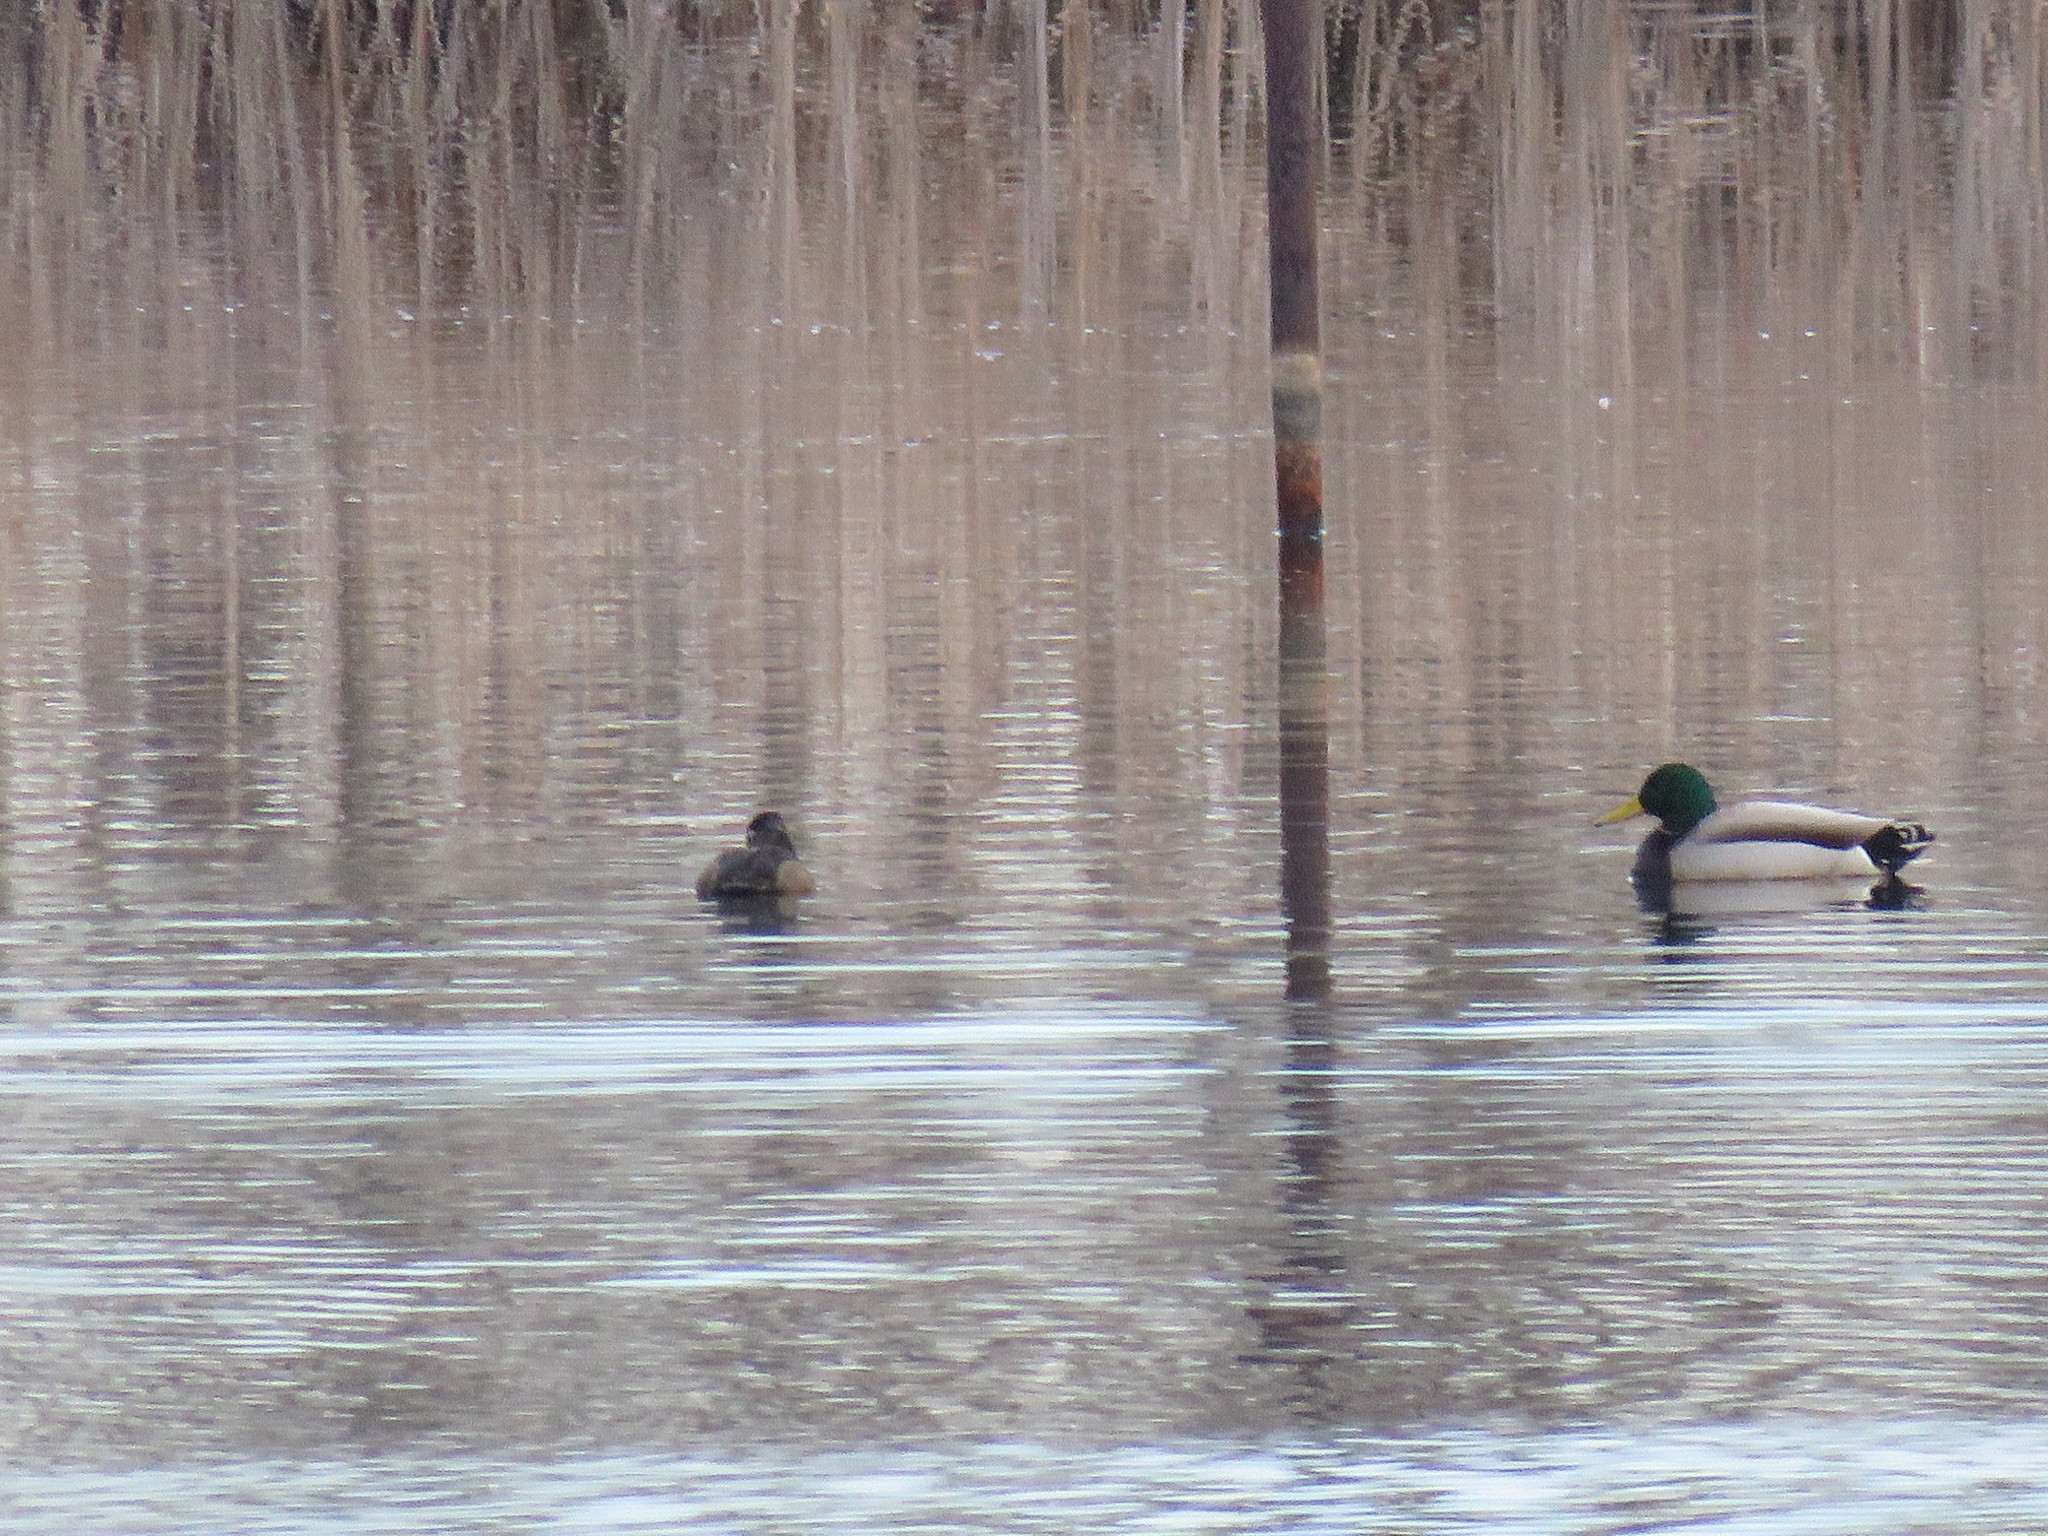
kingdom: Animalia
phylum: Chordata
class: Aves
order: Anseriformes
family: Anatidae
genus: Anas
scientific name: Anas platyrhynchos
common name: Mallard
